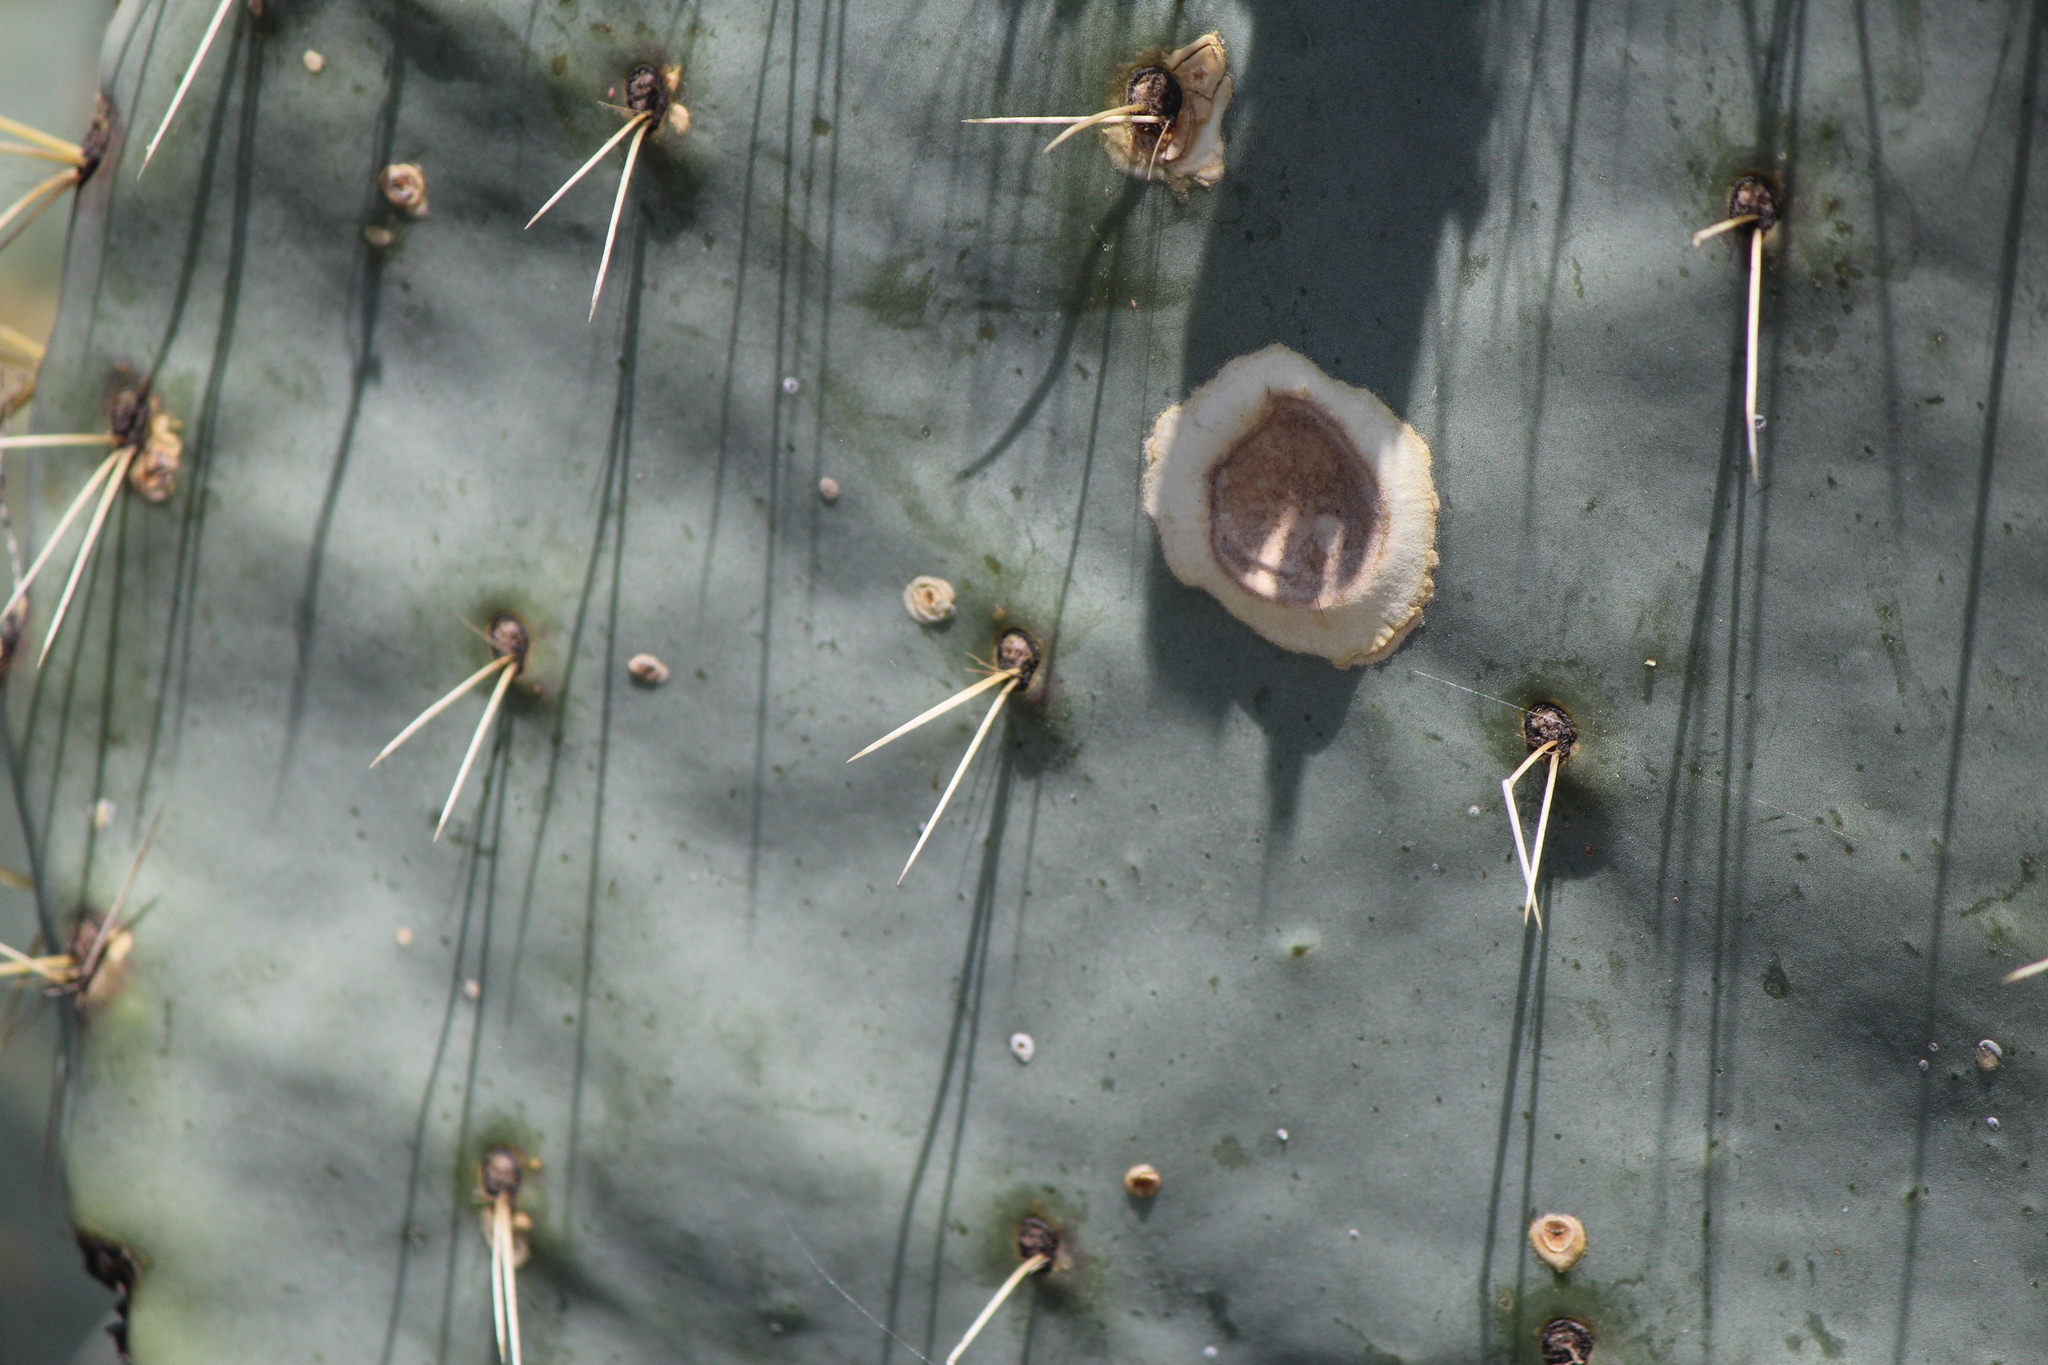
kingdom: Plantae
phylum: Tracheophyta
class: Magnoliopsida
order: Caryophyllales
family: Cactaceae
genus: Opuntia
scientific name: Opuntia robusta
